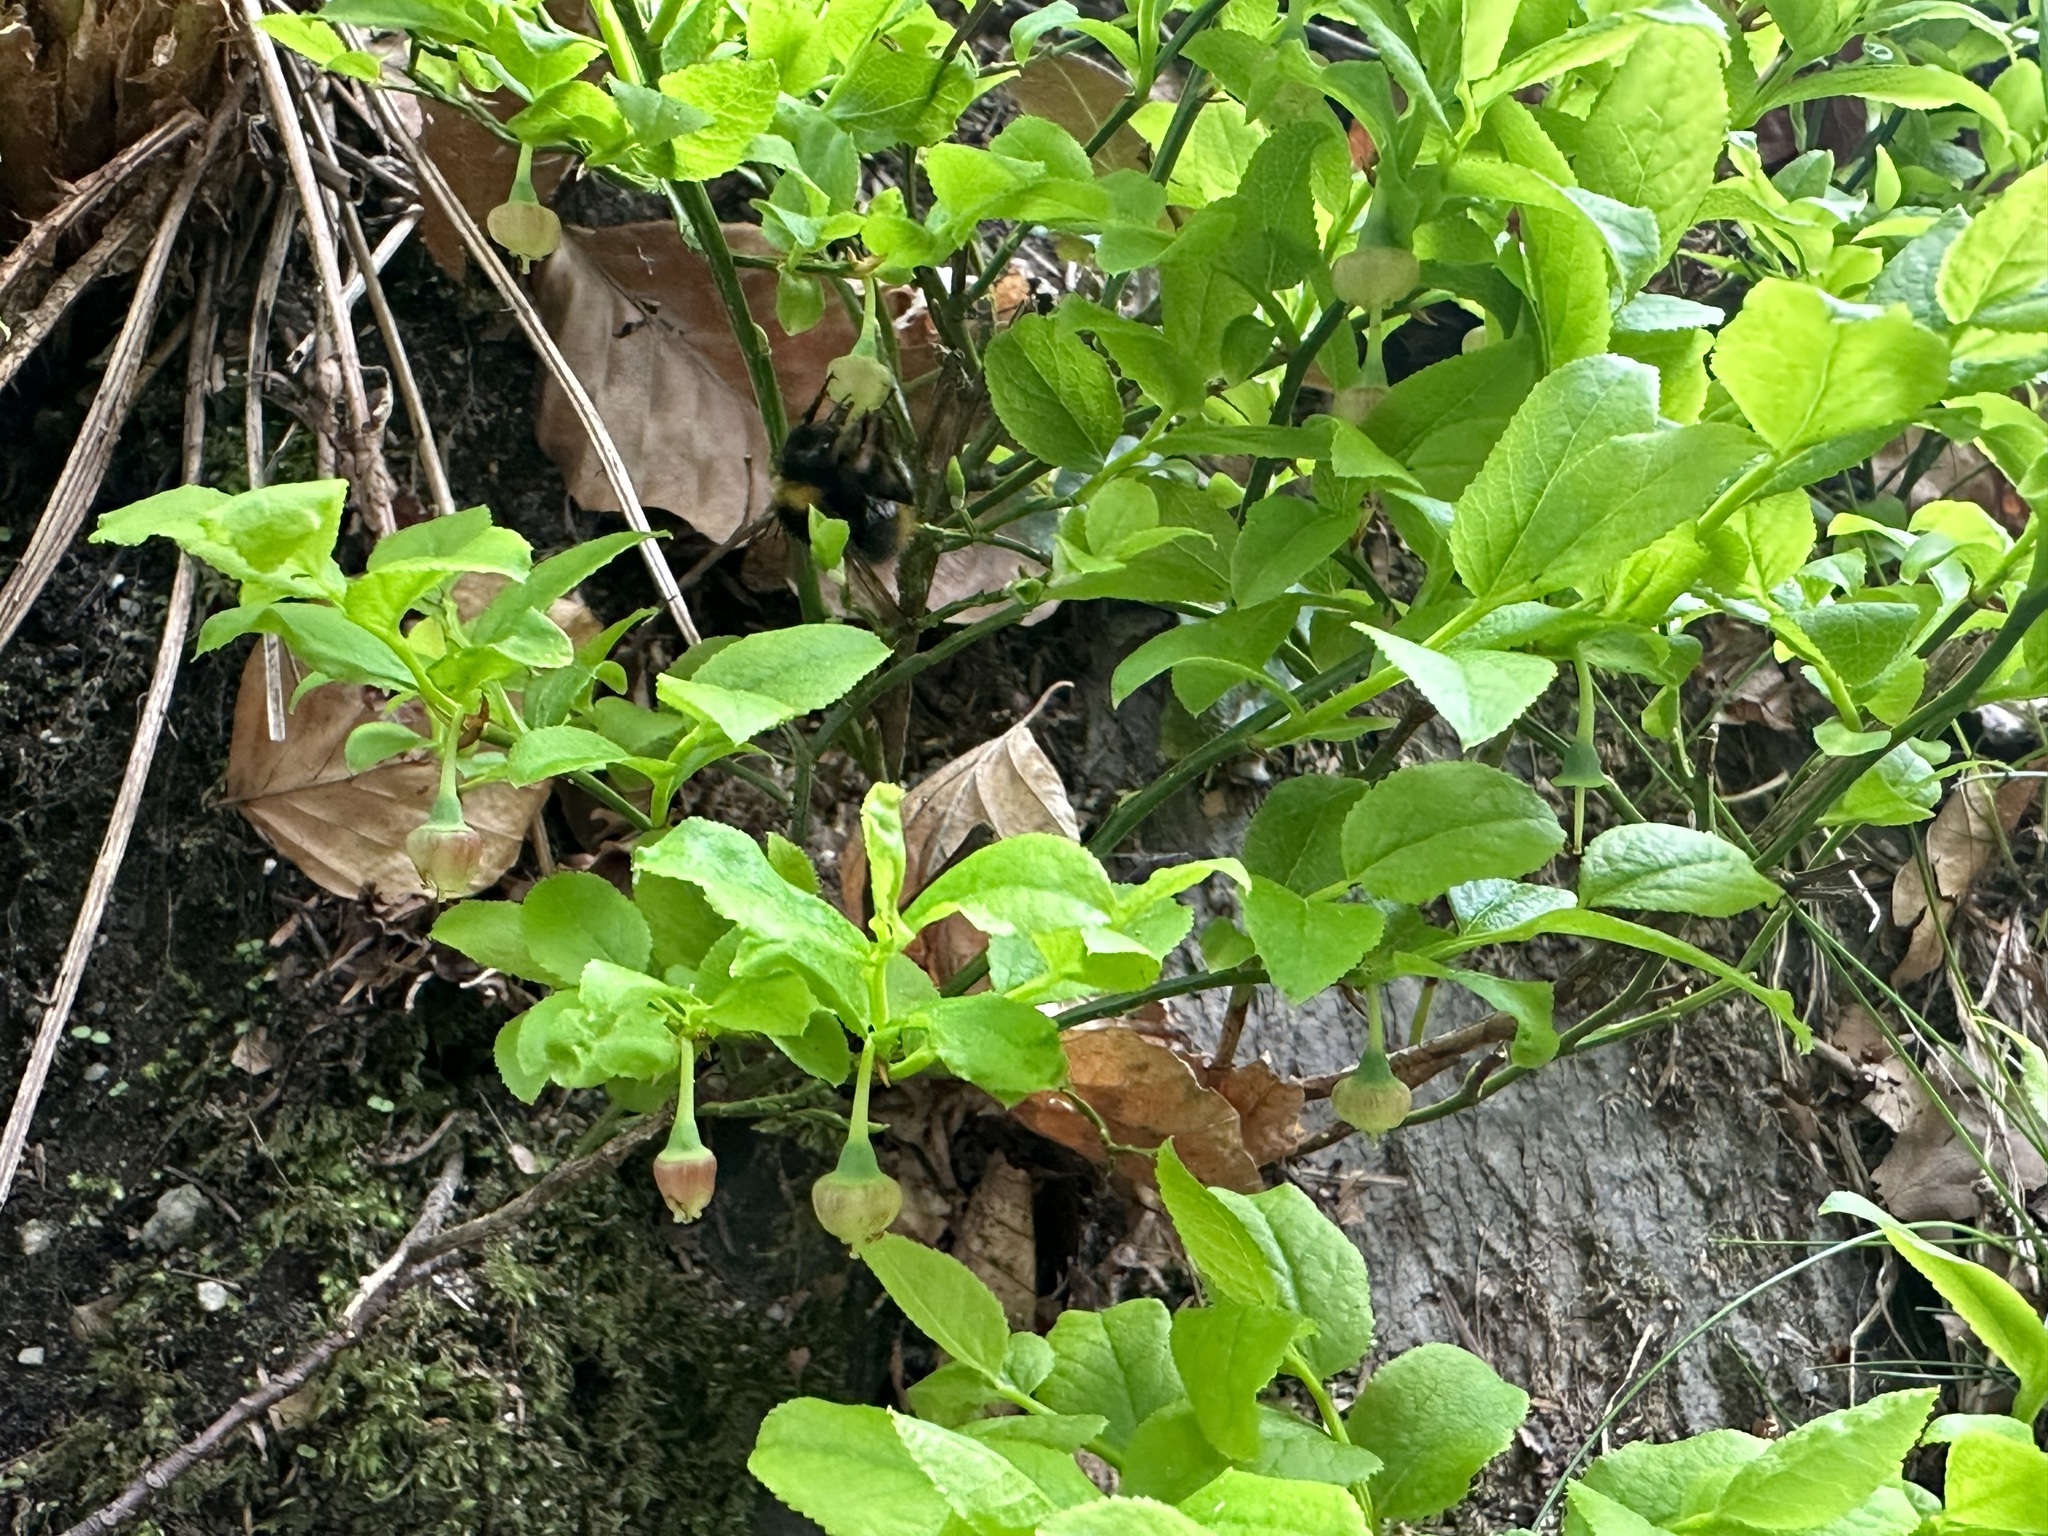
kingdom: Plantae
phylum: Tracheophyta
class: Magnoliopsida
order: Ericales
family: Ericaceae
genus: Vaccinium
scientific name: Vaccinium myrtillus
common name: Bilberry
